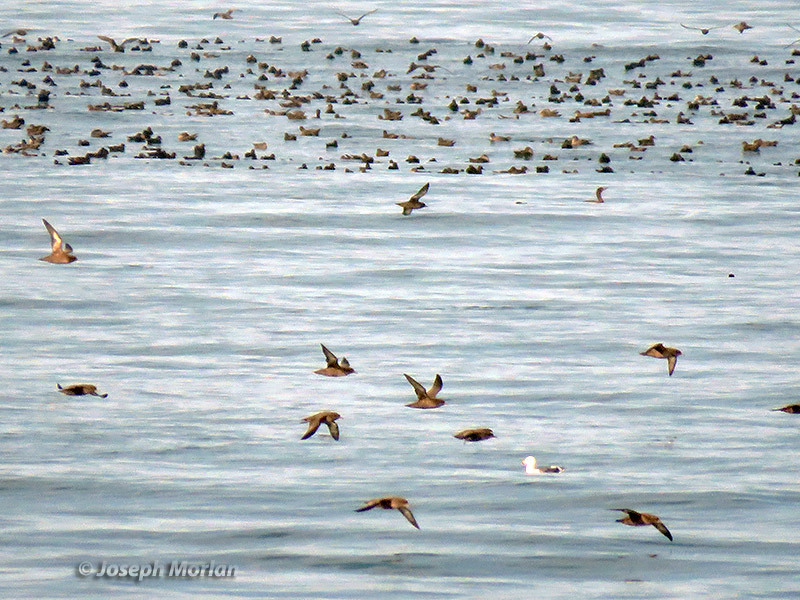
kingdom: Animalia
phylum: Chordata
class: Aves
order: Procellariiformes
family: Procellariidae
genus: Puffinus
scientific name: Puffinus griseus
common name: Sooty shearwater
